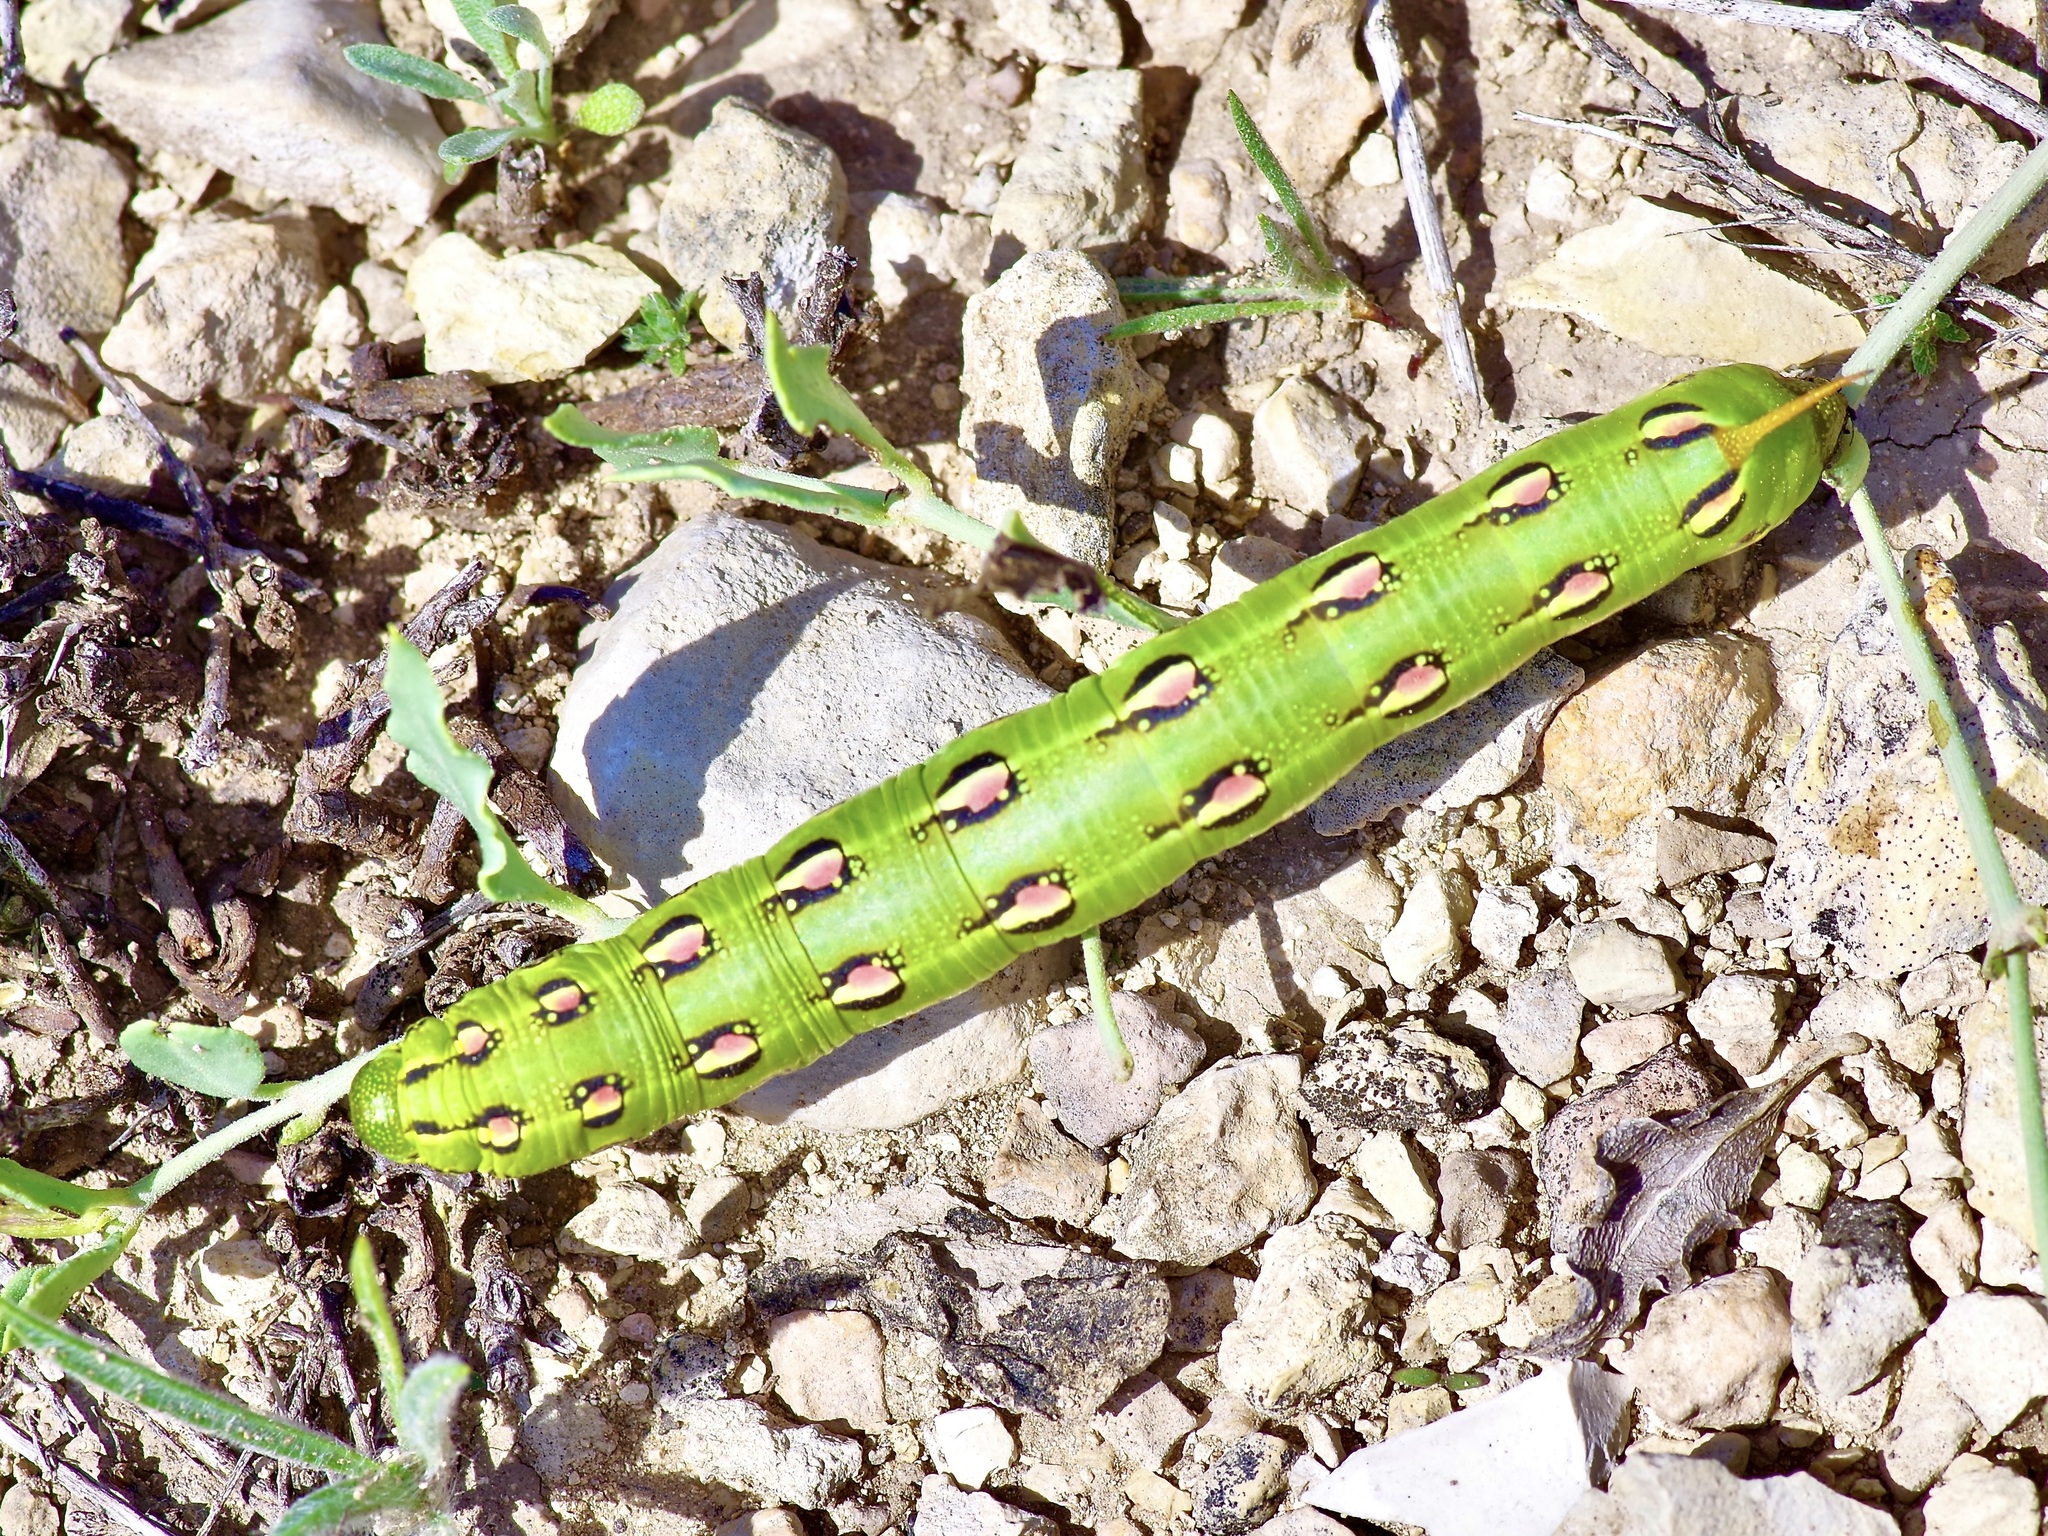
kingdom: Animalia
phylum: Arthropoda
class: Insecta
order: Lepidoptera
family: Sphingidae
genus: Hyles
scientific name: Hyles lineata
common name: White-lined sphinx
